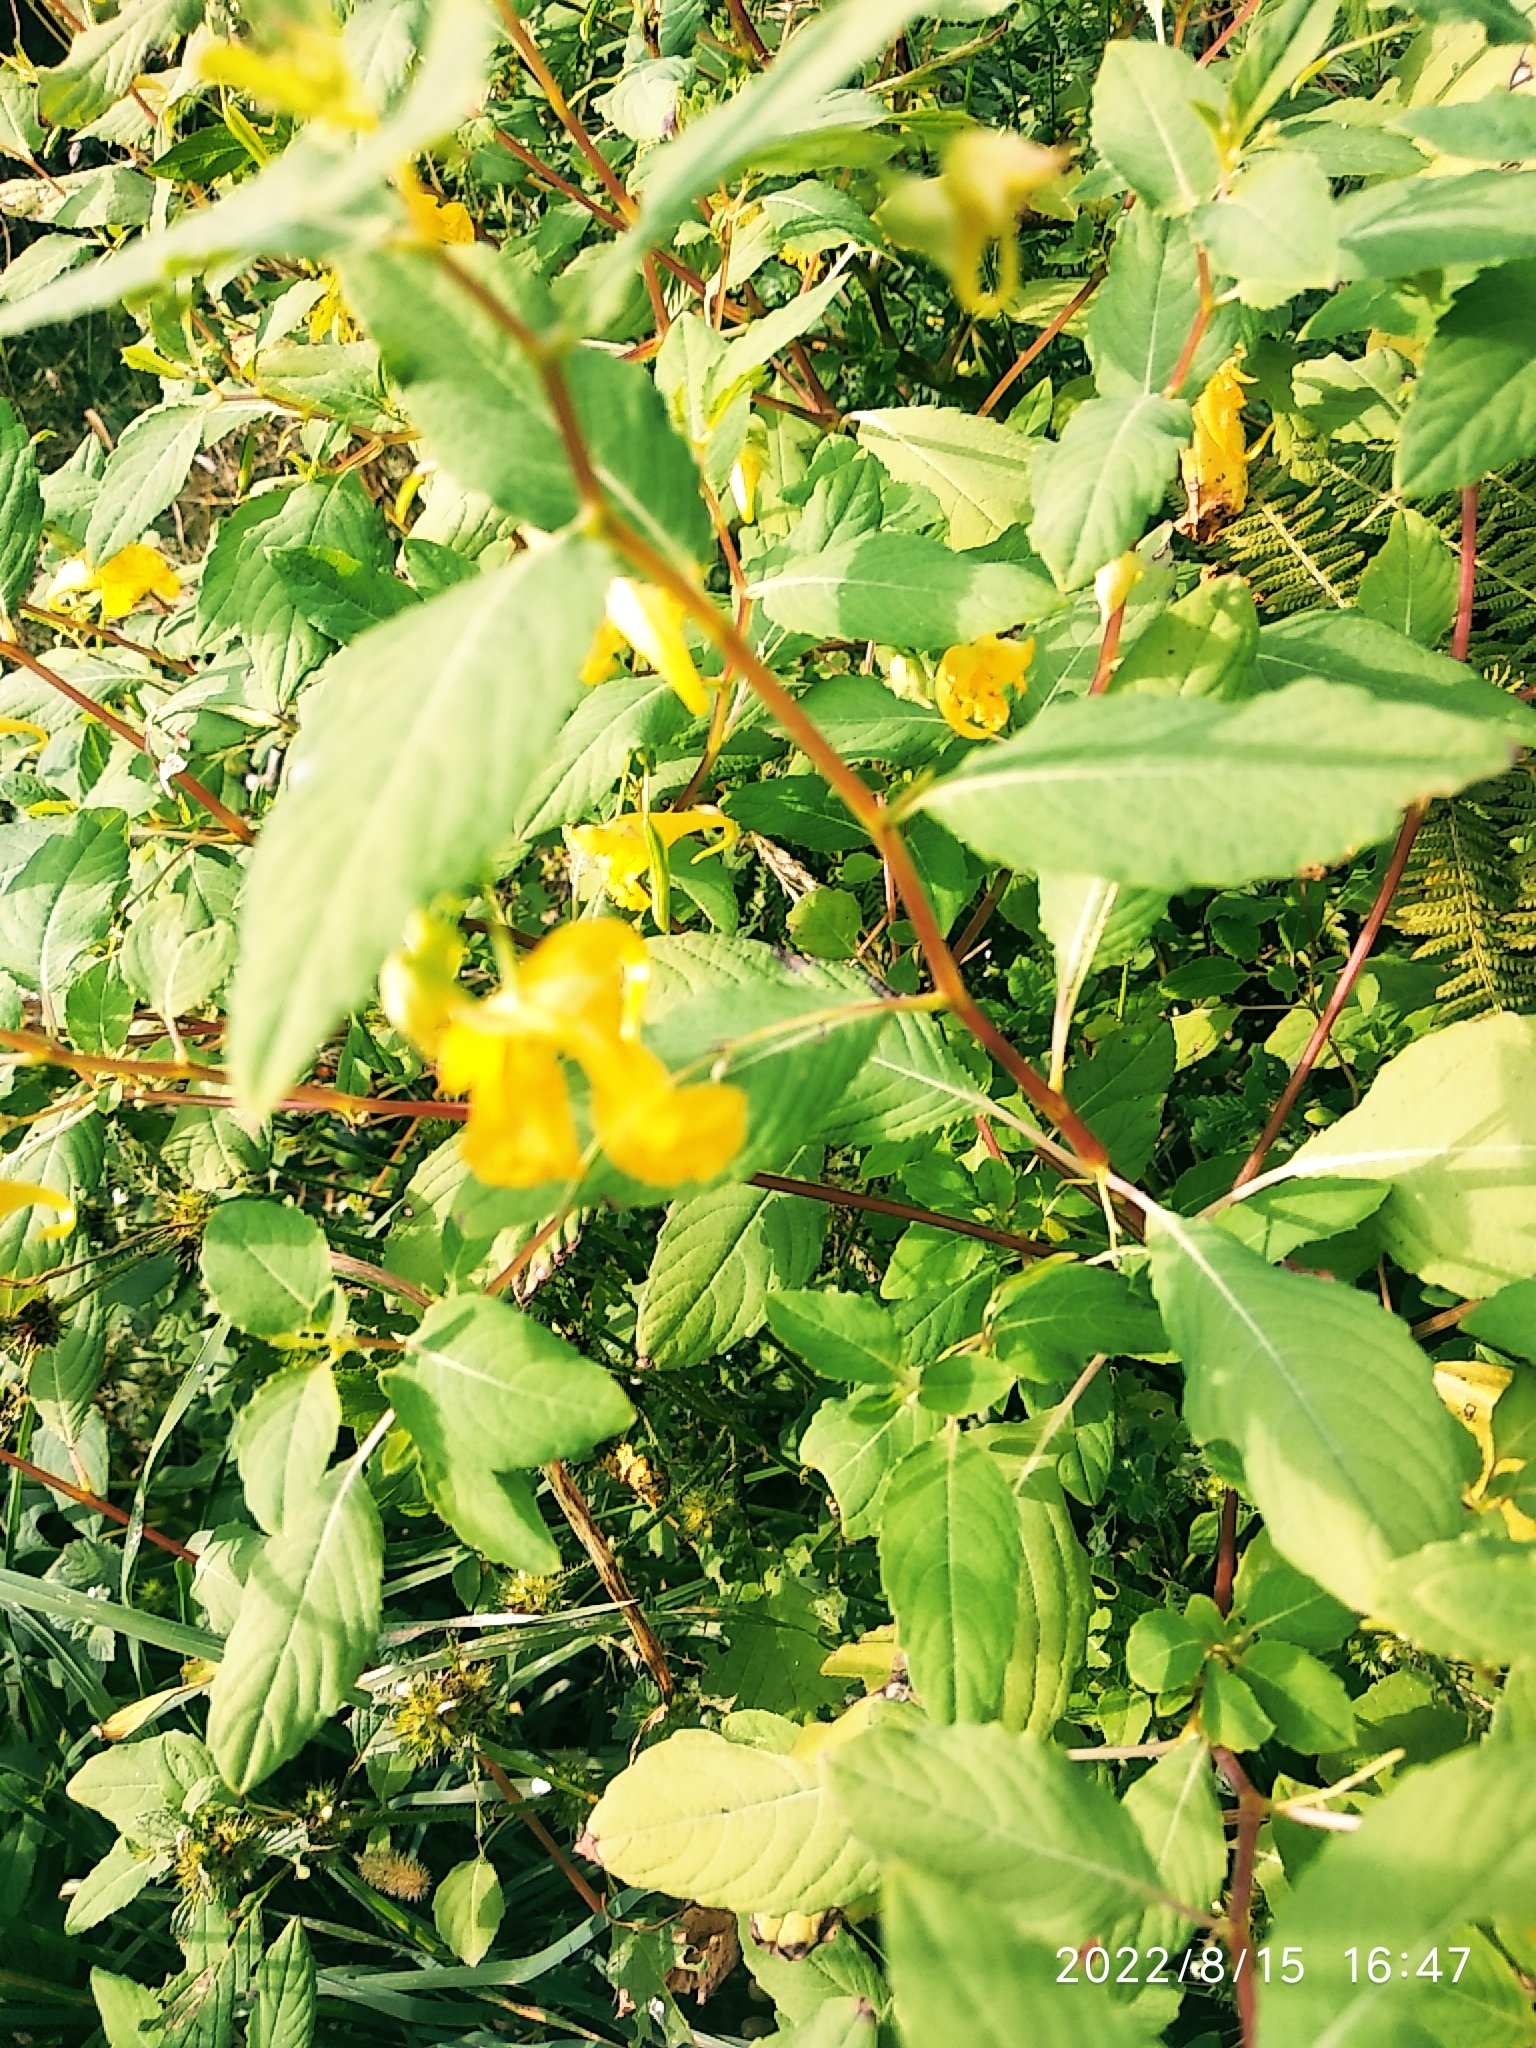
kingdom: Plantae
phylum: Tracheophyta
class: Magnoliopsida
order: Ericales
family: Balsaminaceae
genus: Impatiens
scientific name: Impatiens noli-tangere
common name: Touch-me-not balsam
